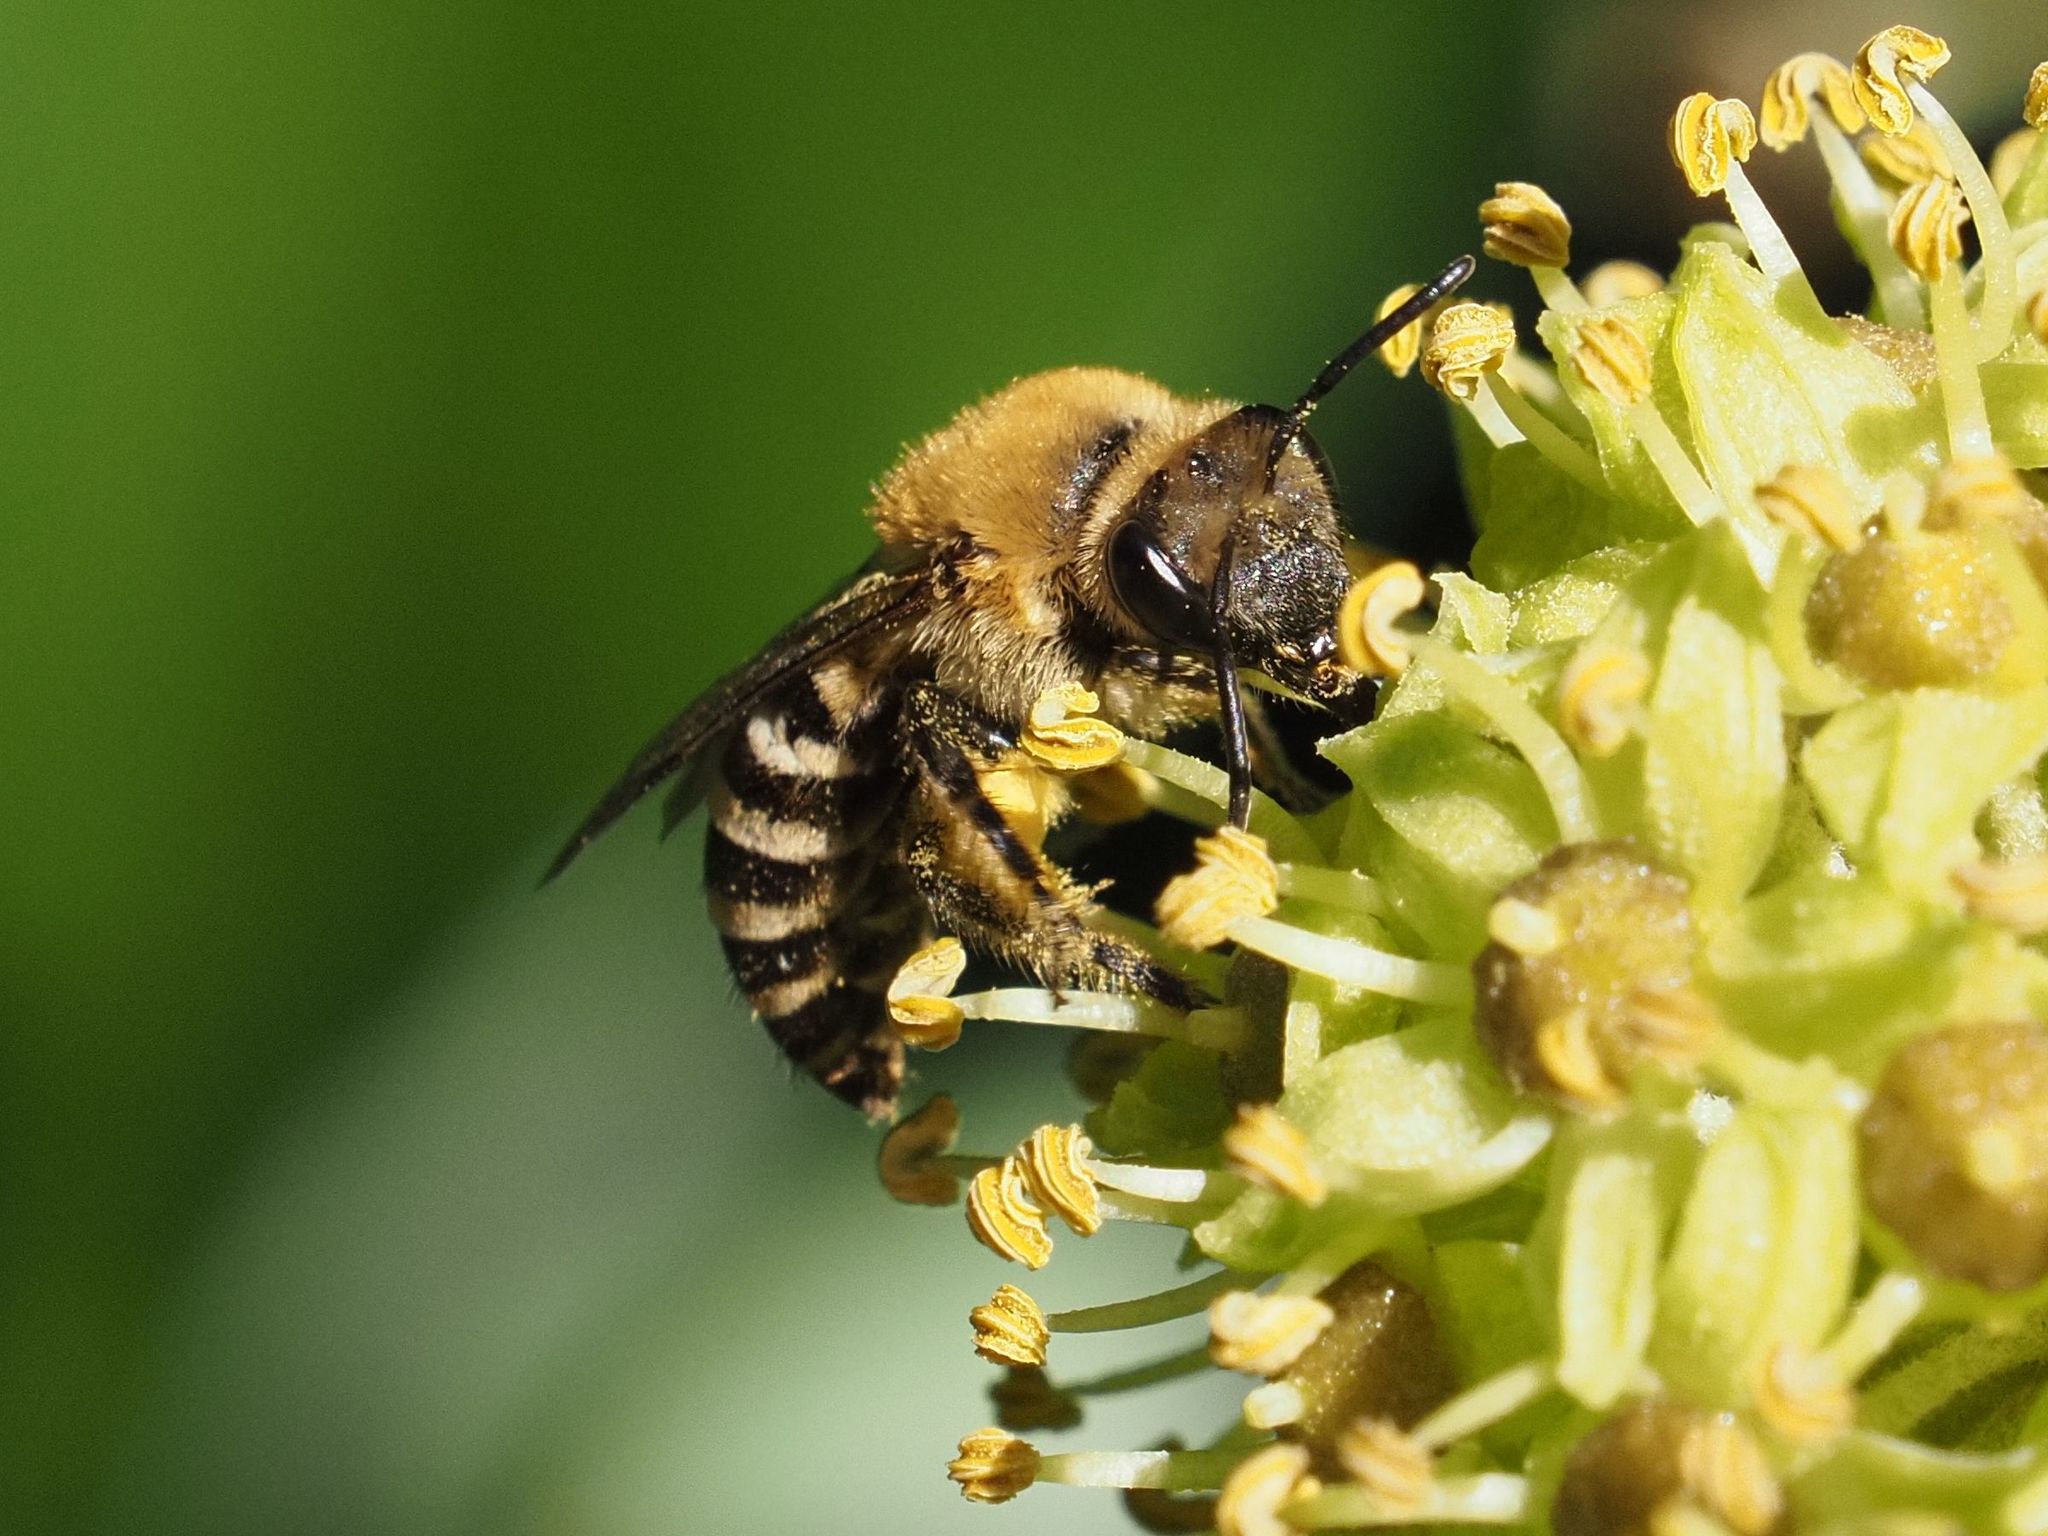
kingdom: Animalia
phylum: Arthropoda
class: Insecta
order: Hymenoptera
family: Colletidae
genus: Colletes
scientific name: Colletes hederae
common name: Ivy bee
